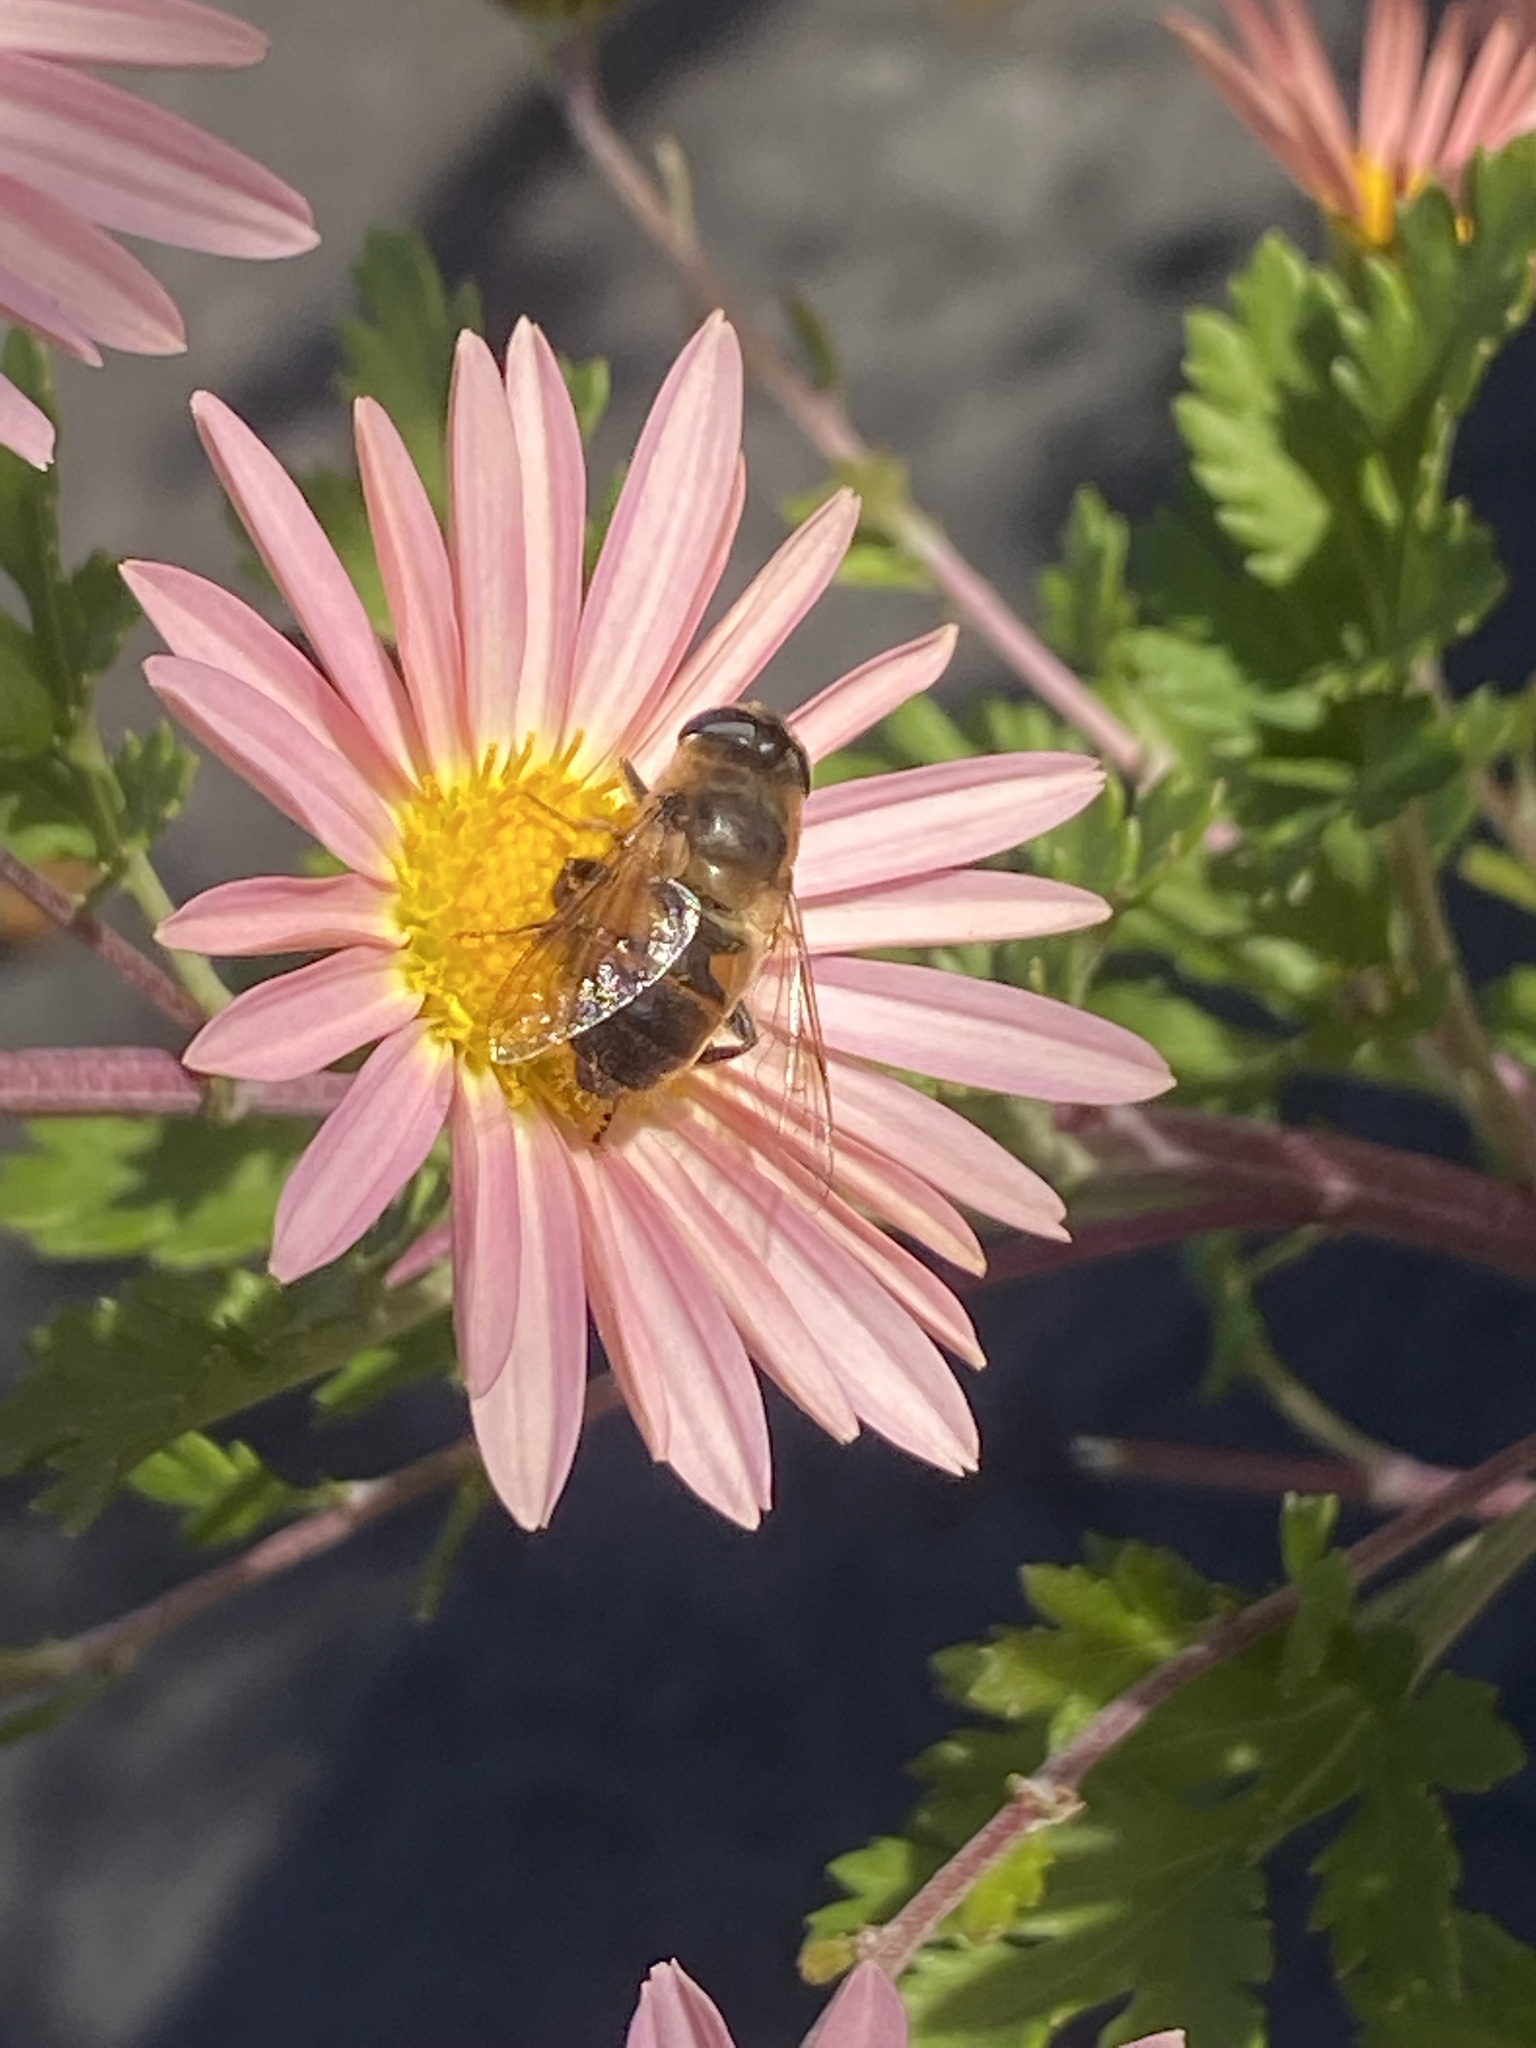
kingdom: Animalia
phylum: Arthropoda
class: Insecta
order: Diptera
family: Syrphidae
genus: Eristalis
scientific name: Eristalis tenax
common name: Drone fly
